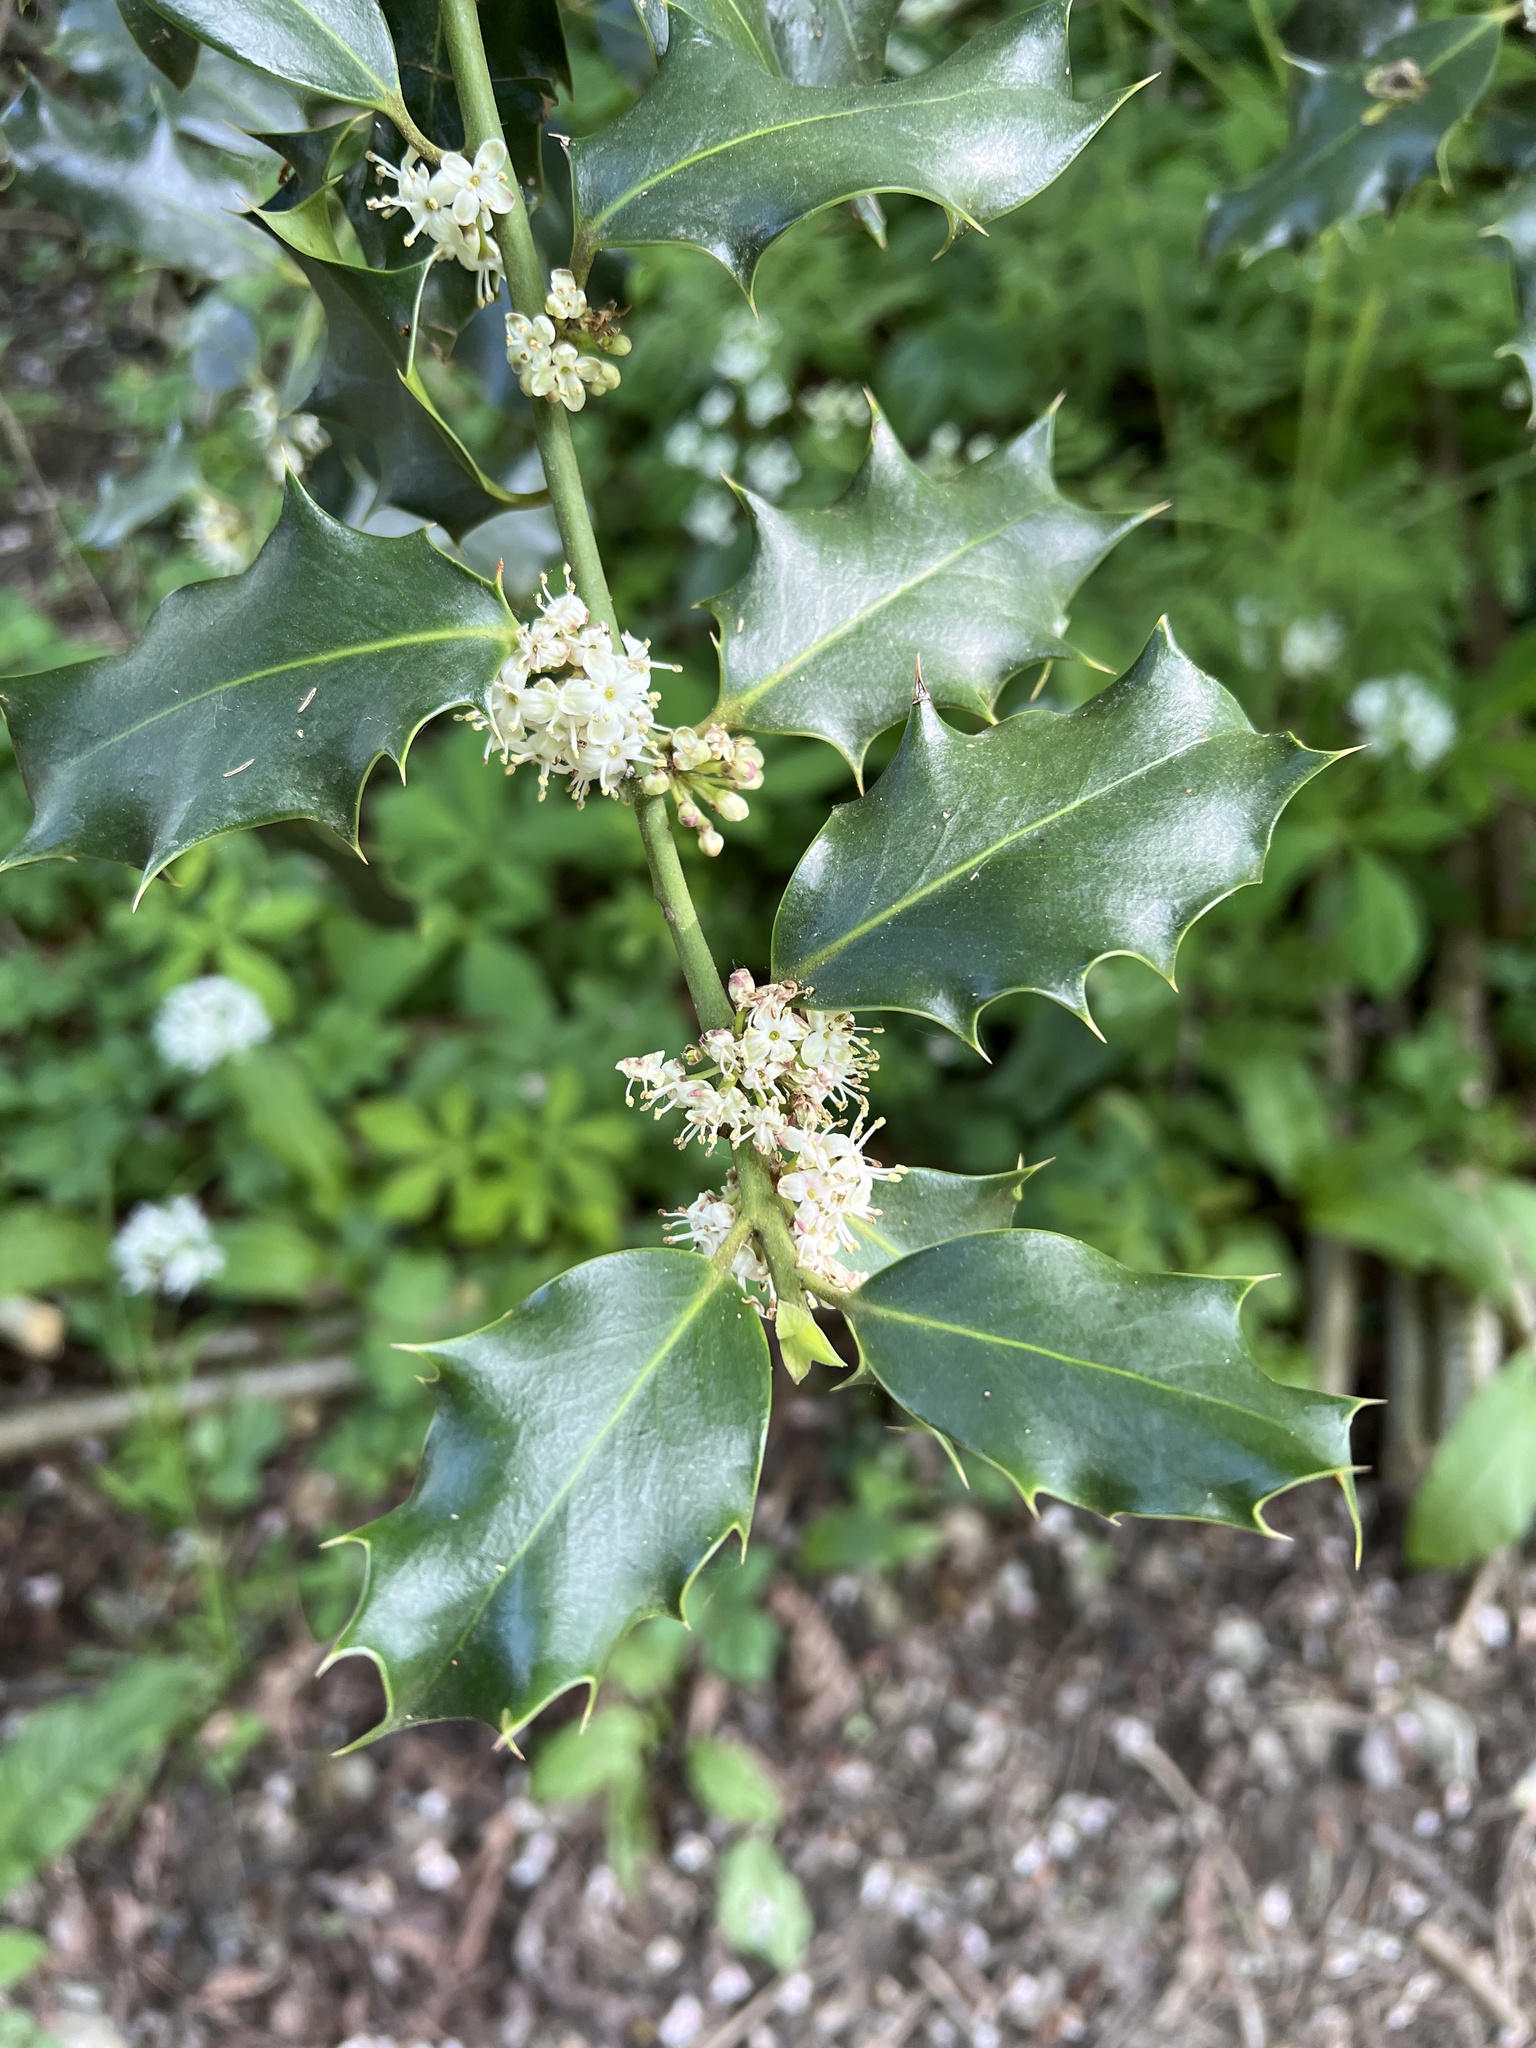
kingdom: Plantae
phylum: Tracheophyta
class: Magnoliopsida
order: Aquifoliales
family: Aquifoliaceae
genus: Ilex
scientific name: Ilex aquifolium
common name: English holly
